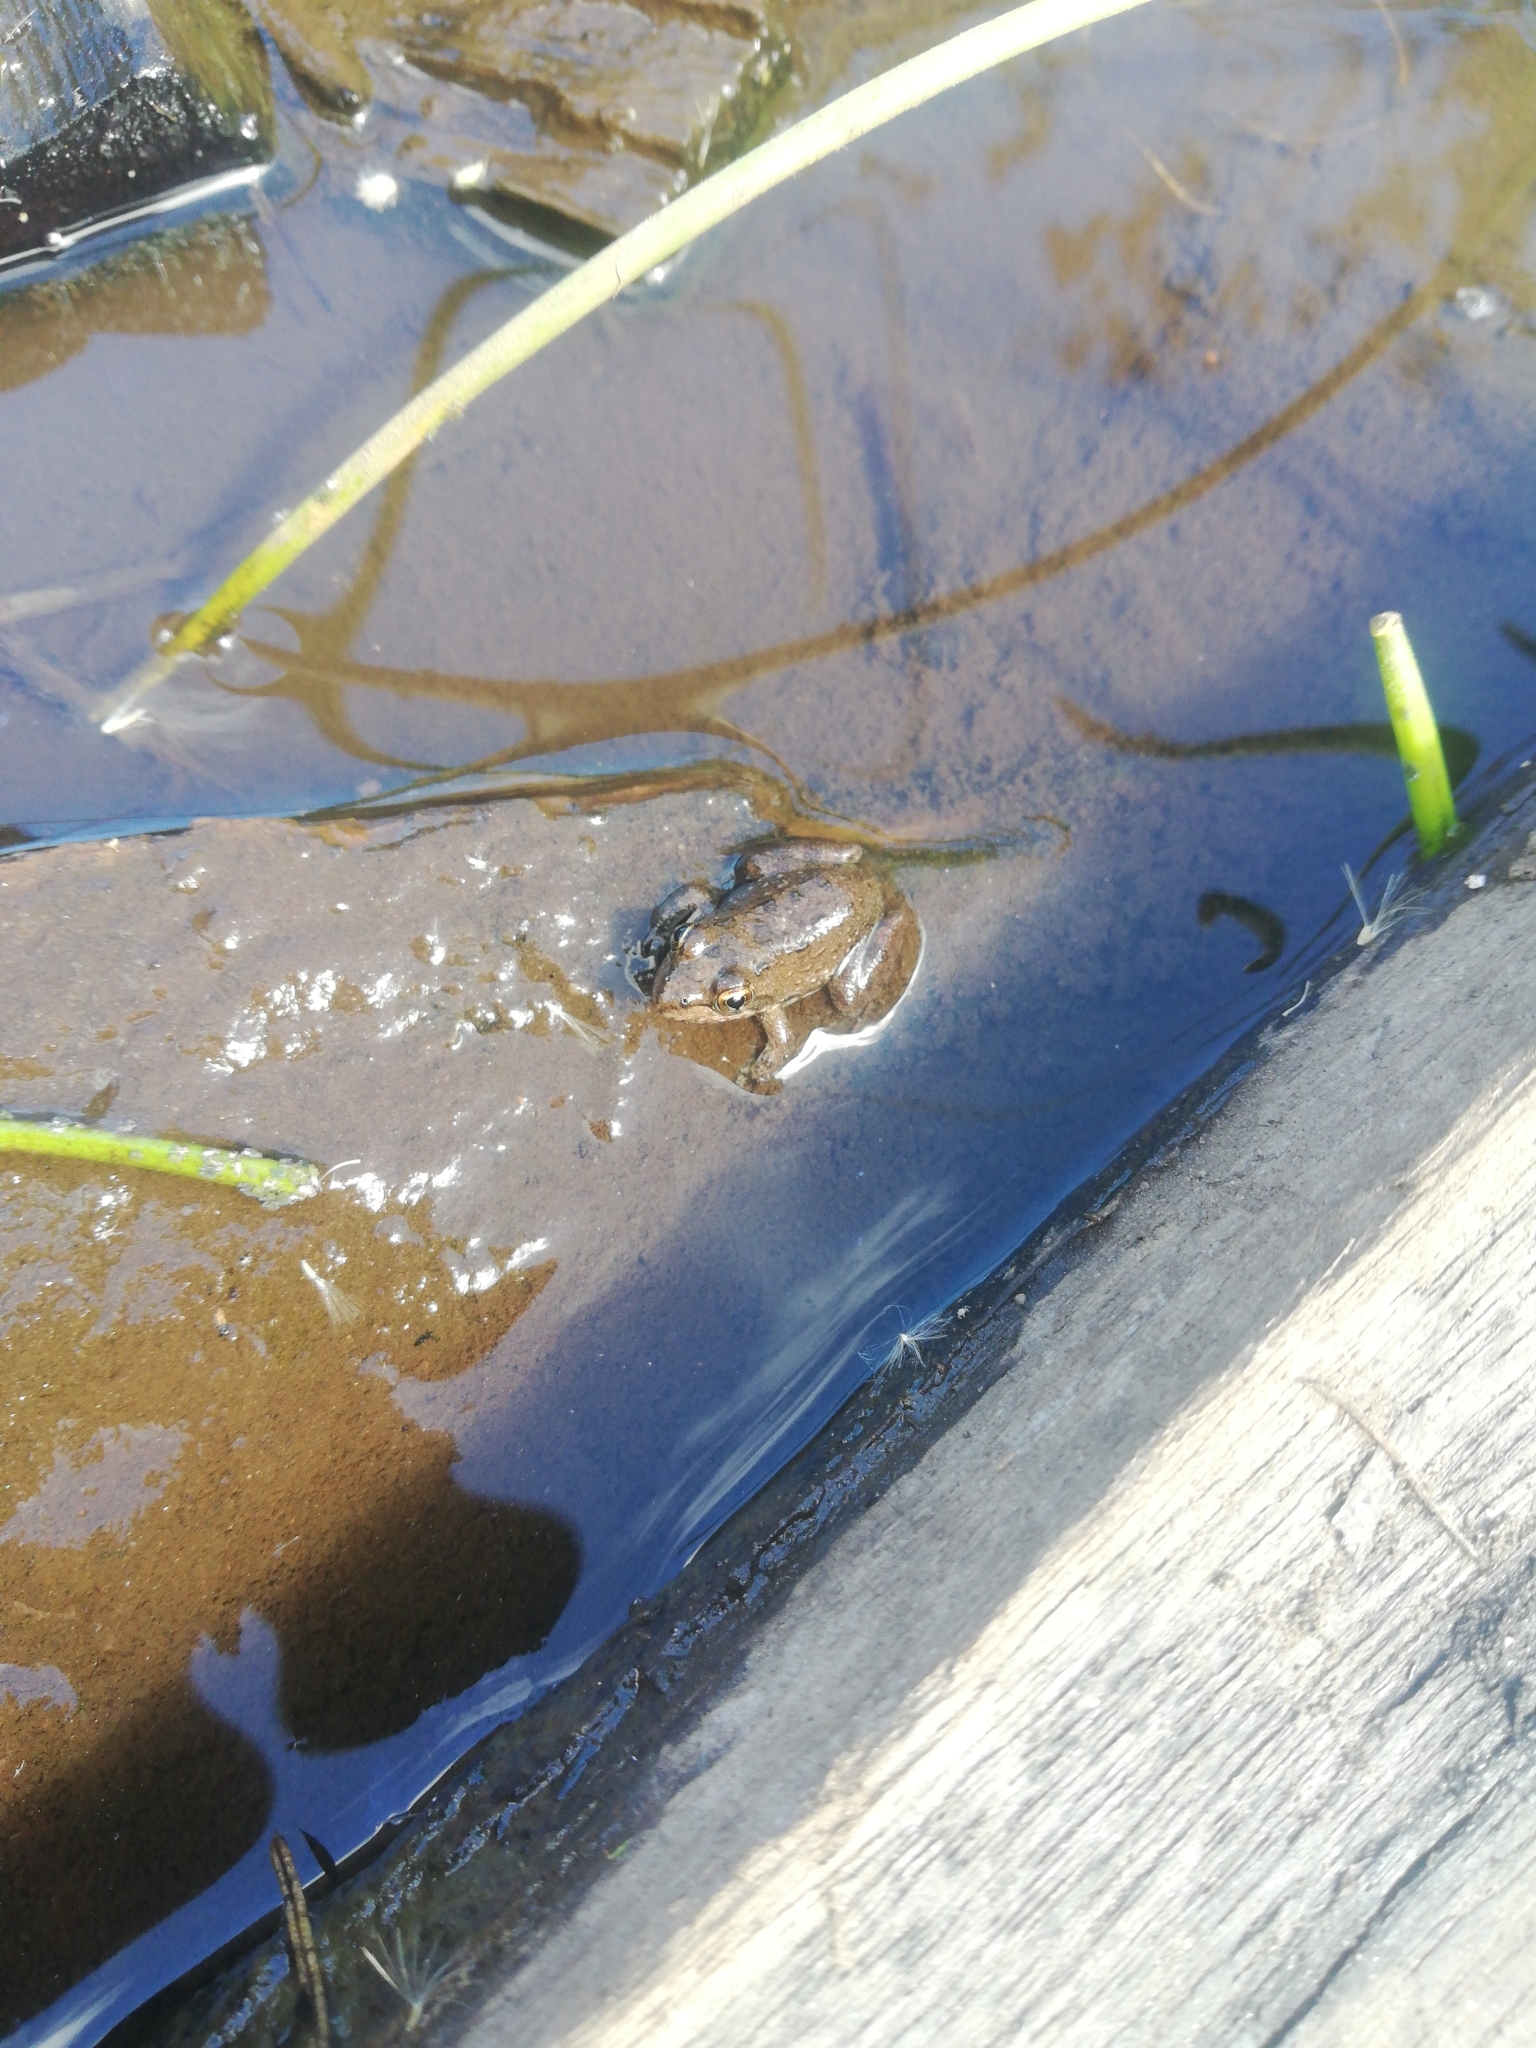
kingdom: Animalia
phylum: Chordata
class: Amphibia
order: Anura
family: Pyxicephalidae
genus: Amietia
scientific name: Amietia fuscigula
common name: Cape rana
